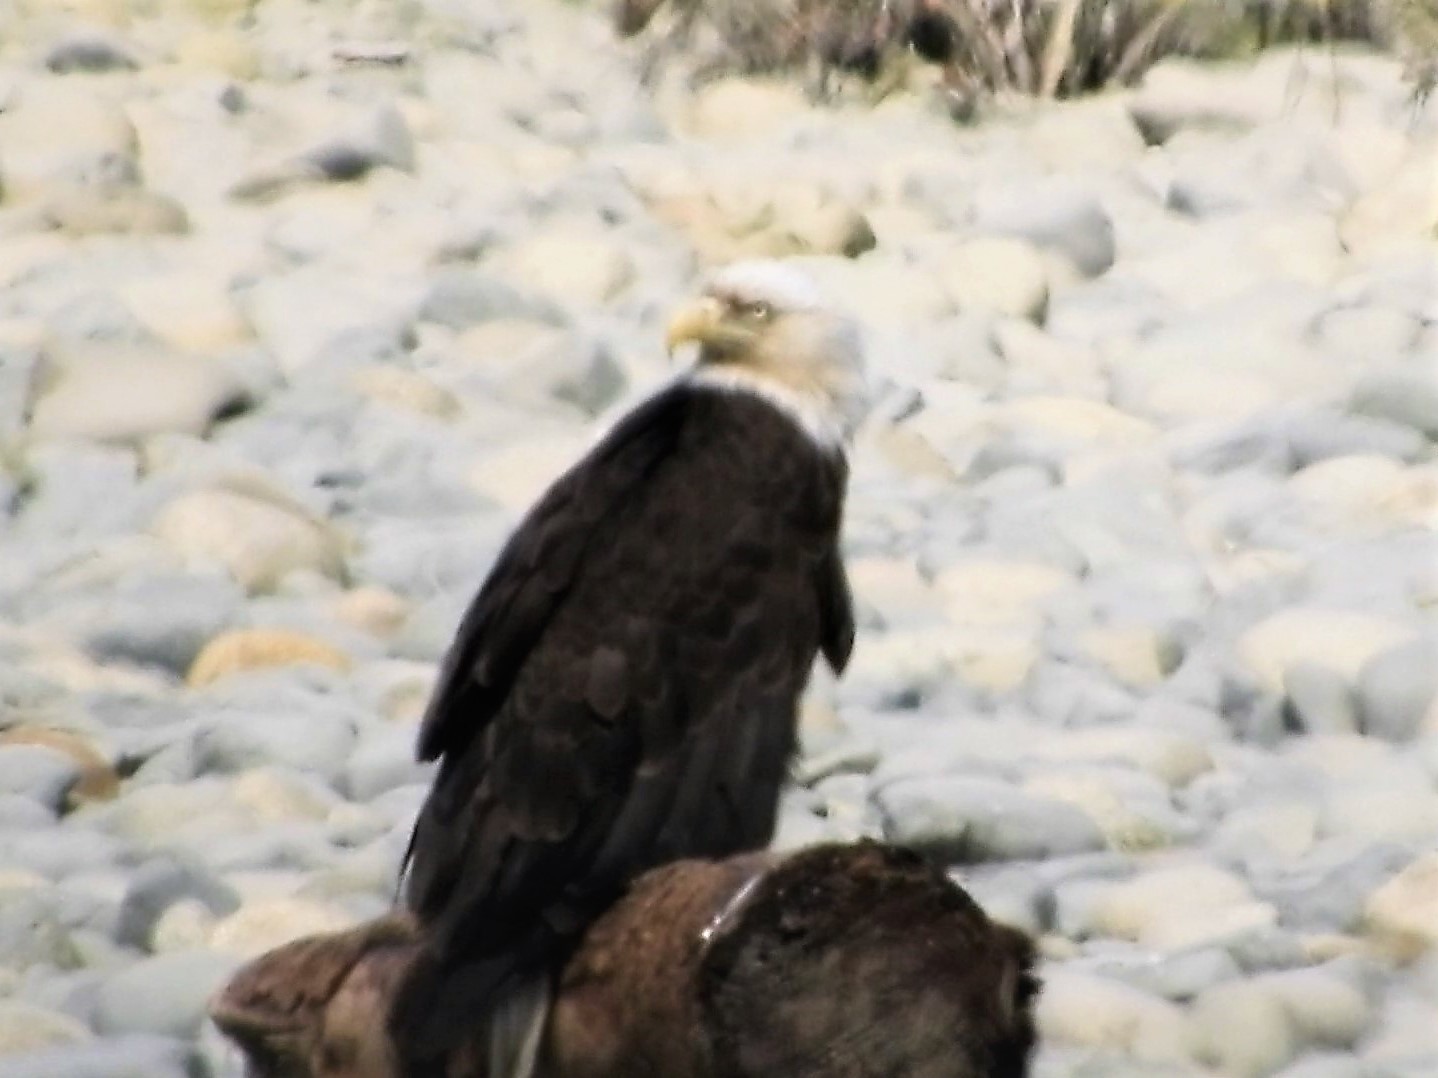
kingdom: Animalia
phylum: Chordata
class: Aves
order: Accipitriformes
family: Accipitridae
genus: Haliaeetus
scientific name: Haliaeetus leucocephalus
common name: Bald eagle
